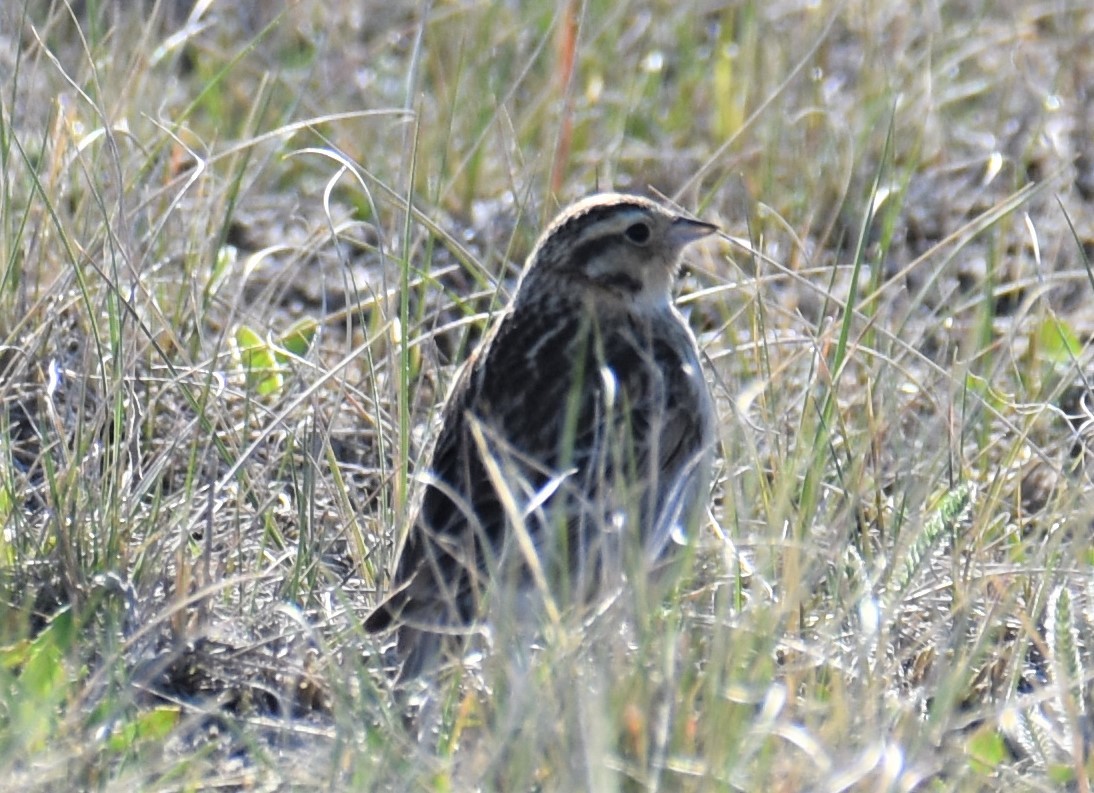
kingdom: Animalia
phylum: Chordata
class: Aves
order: Passeriformes
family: Calcariidae
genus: Calcarius
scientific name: Calcarius ornatus
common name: Chestnut-collared longspur
